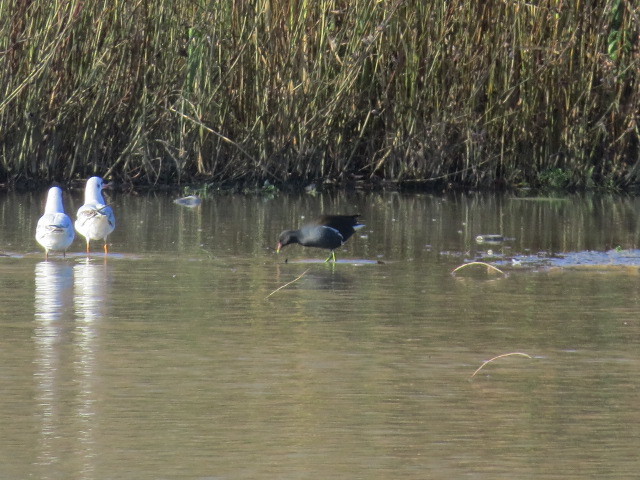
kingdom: Animalia
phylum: Chordata
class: Aves
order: Gruiformes
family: Rallidae
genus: Gallinula
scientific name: Gallinula chloropus
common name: Common moorhen
